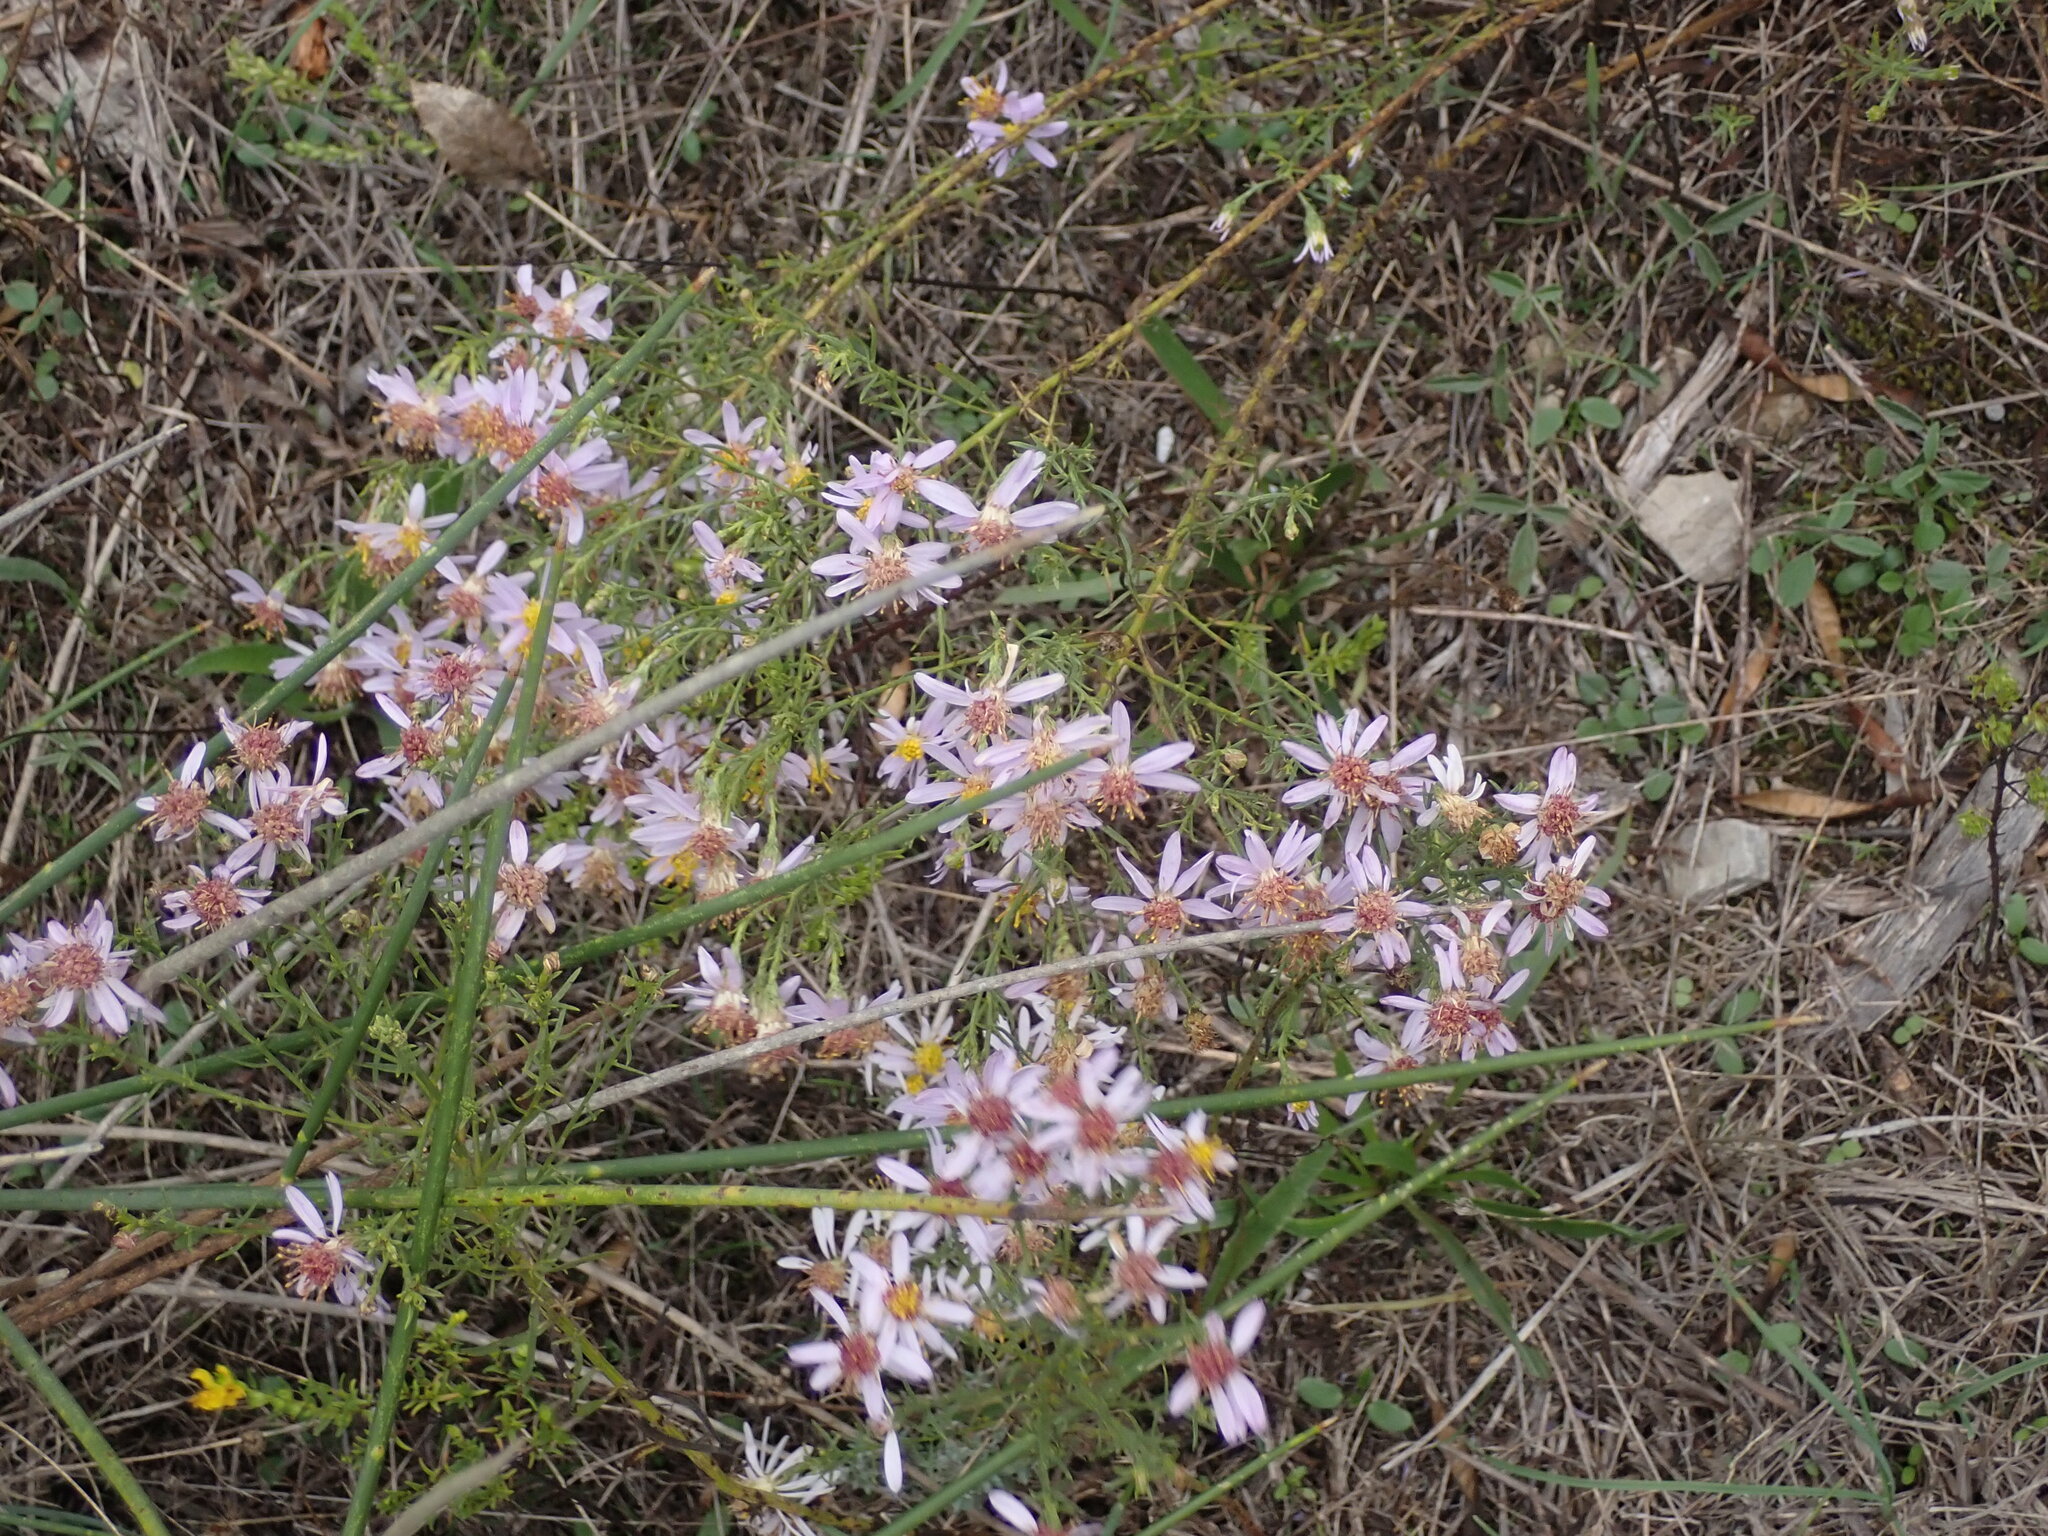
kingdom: Plantae
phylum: Tracheophyta
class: Magnoliopsida
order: Asterales
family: Asteraceae
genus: Galatella
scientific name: Galatella sedifolia
